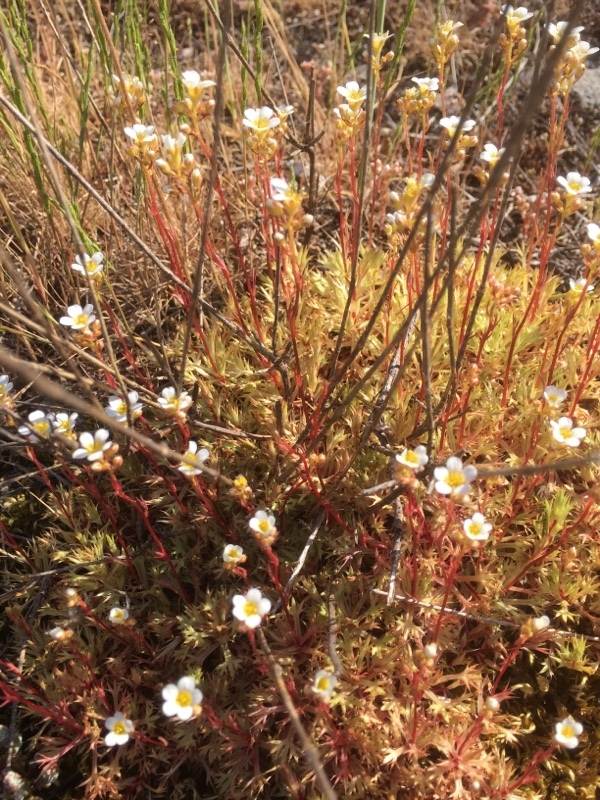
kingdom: Plantae
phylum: Tracheophyta
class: Magnoliopsida
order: Saxifragales
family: Saxifragaceae
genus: Saxifraga
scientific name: Saxifraga fragosoi
